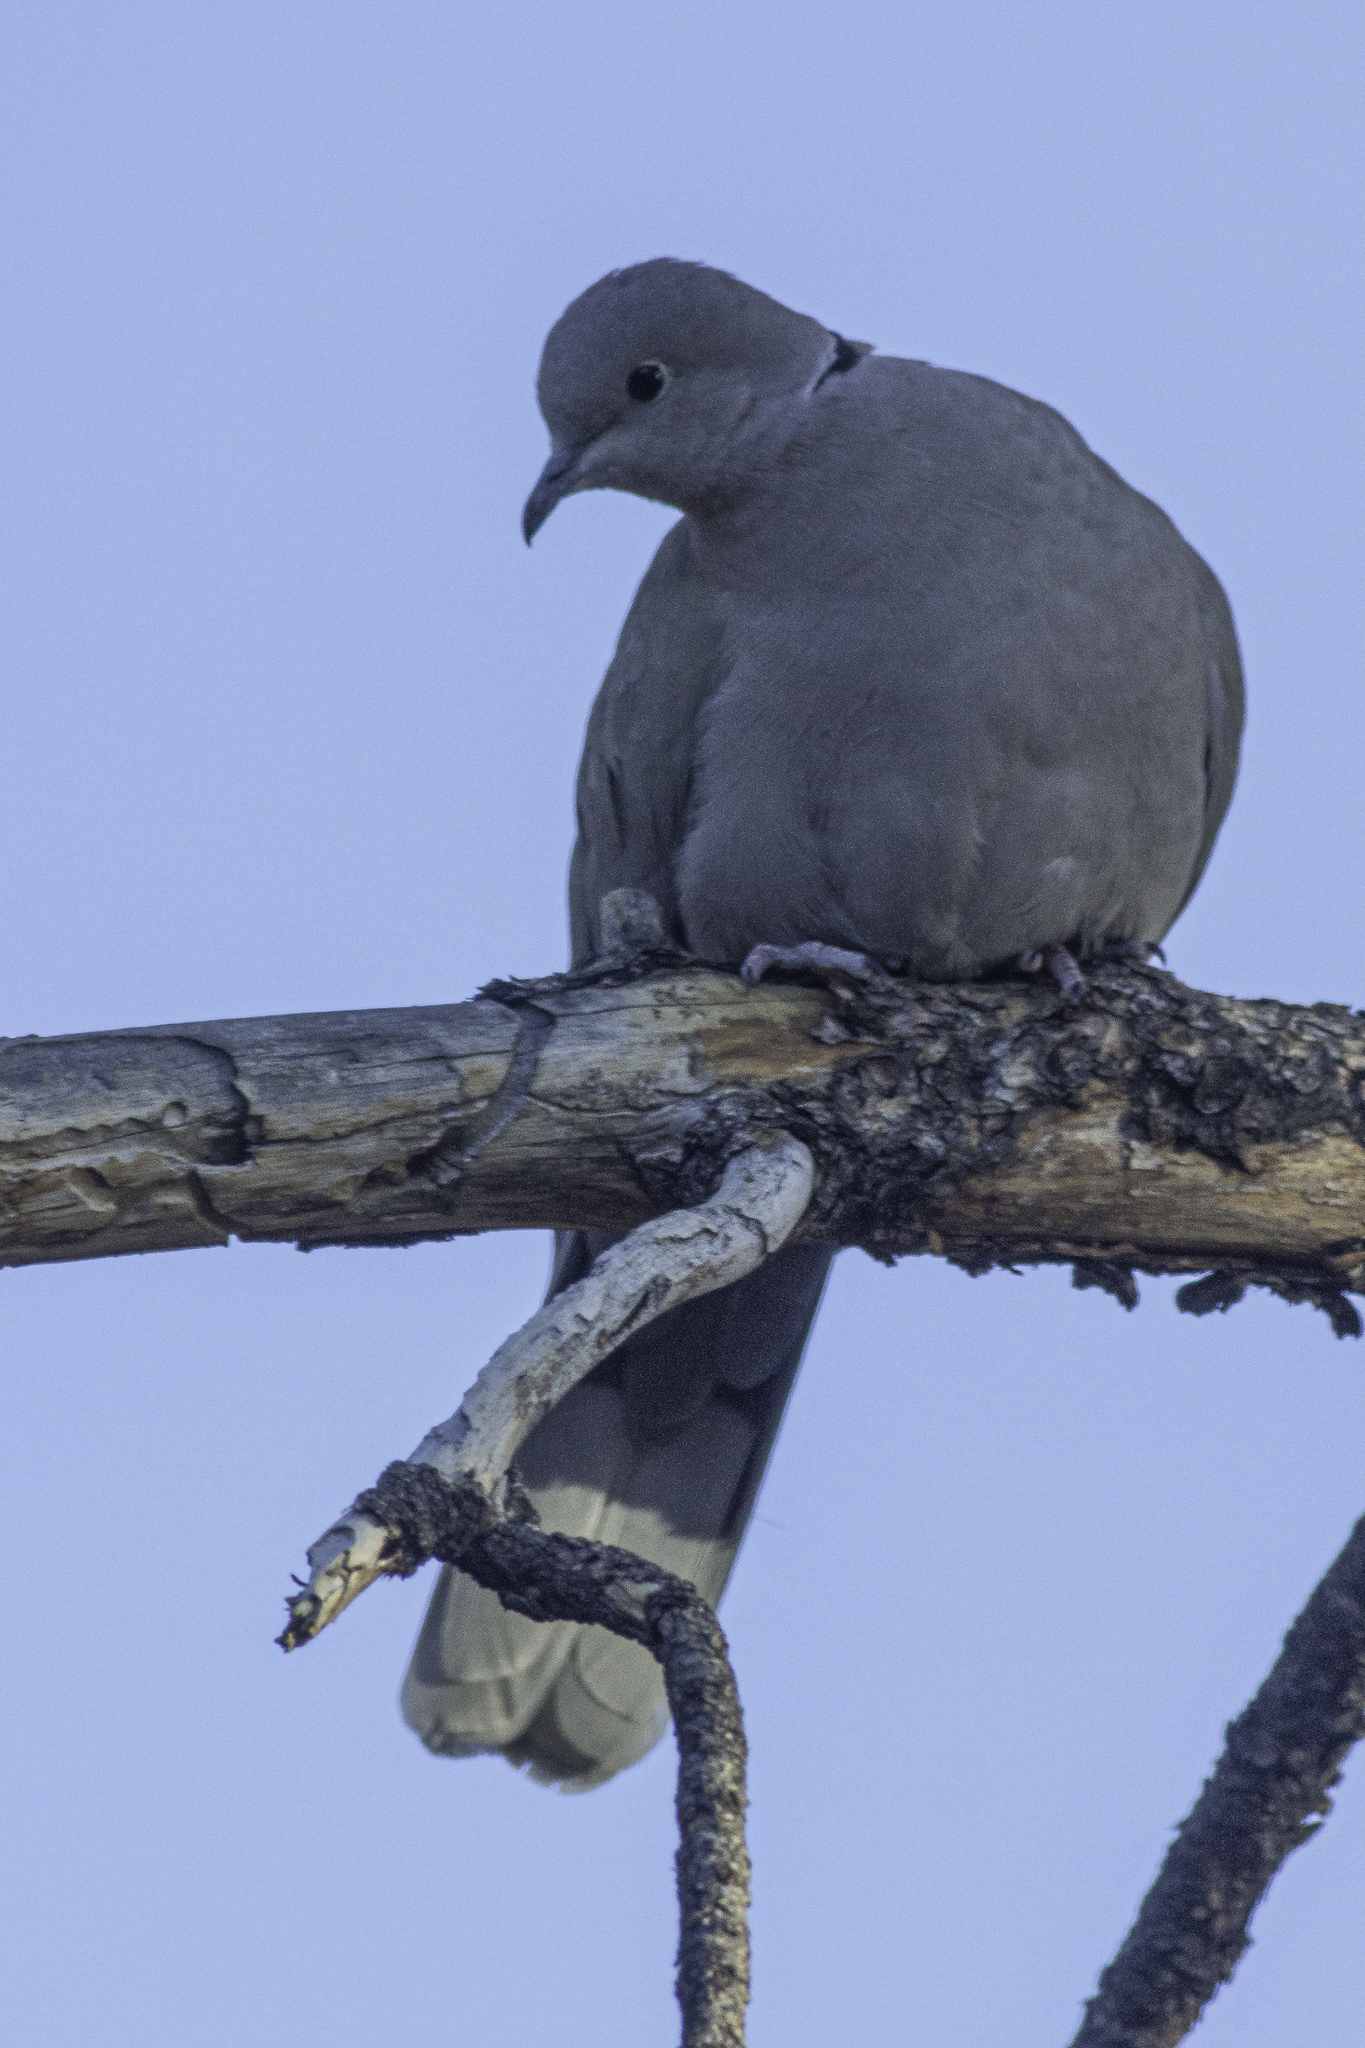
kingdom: Animalia
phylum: Chordata
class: Aves
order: Columbiformes
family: Columbidae
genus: Streptopelia
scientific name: Streptopelia decaocto
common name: Eurasian collared dove
